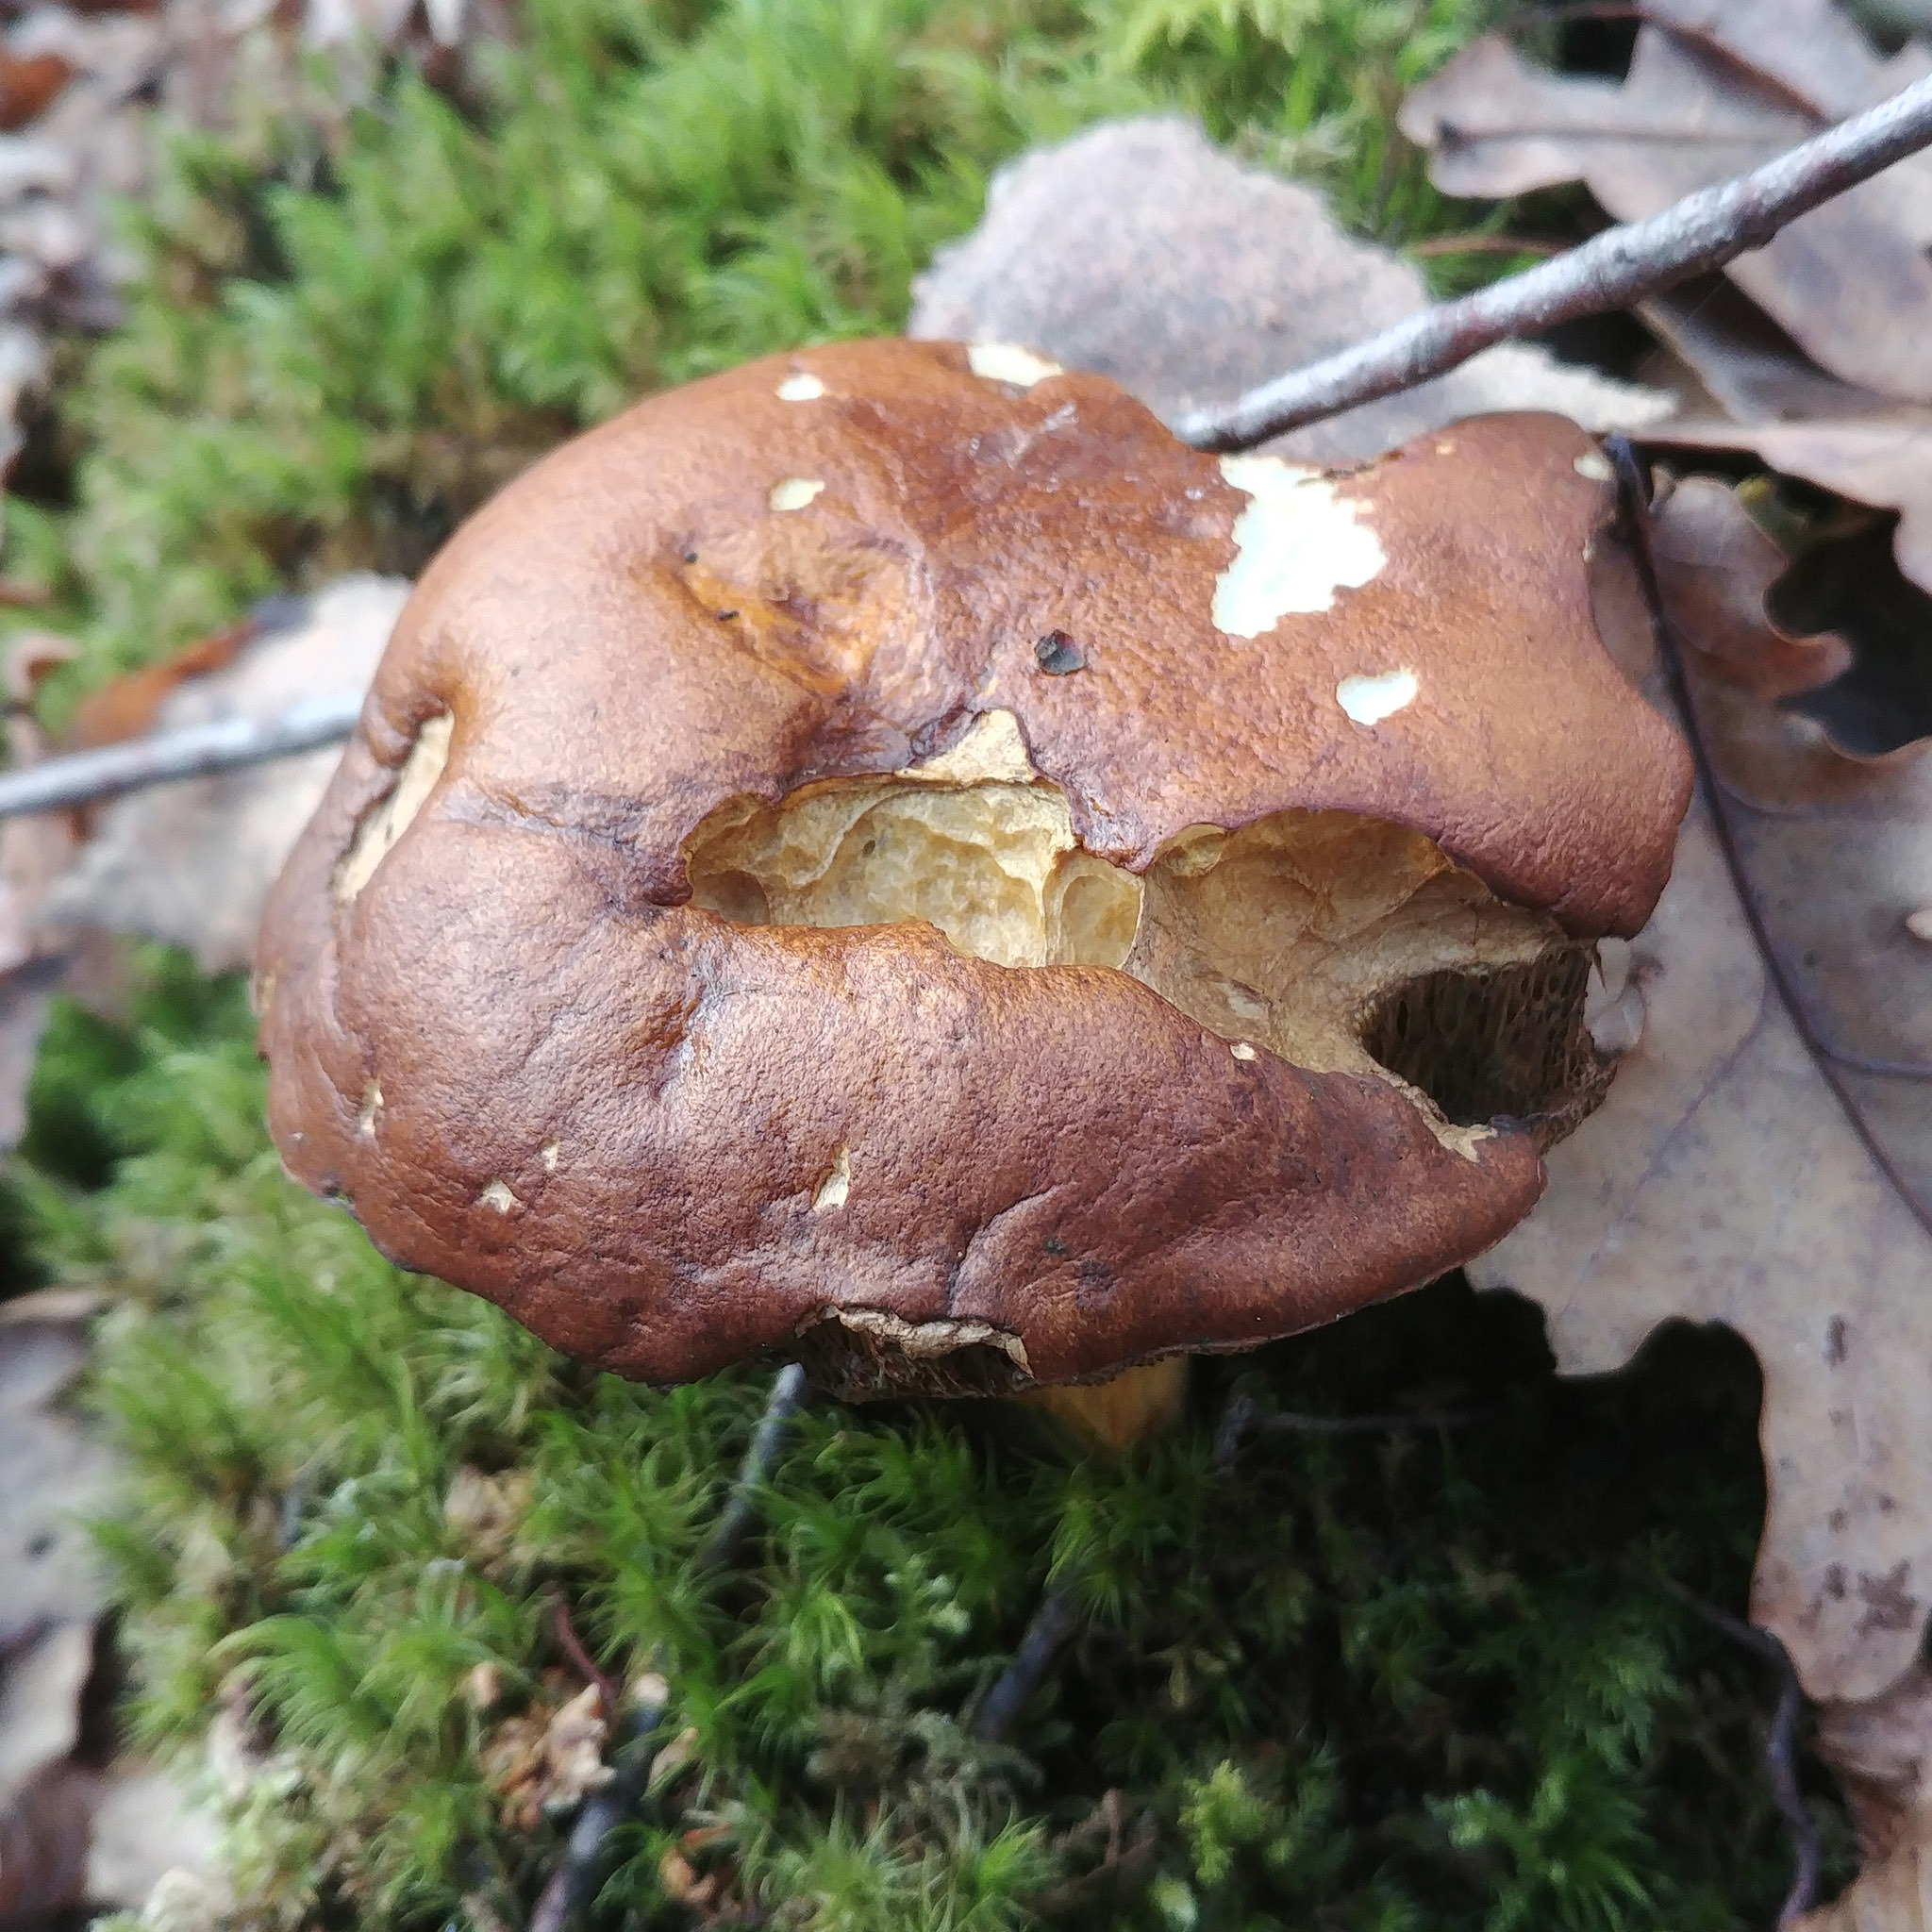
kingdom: Fungi
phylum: Basidiomycota
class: Agaricomycetes
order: Boletales
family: Boletaceae
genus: Imleria
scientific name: Imleria badia
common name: Bay bolete
